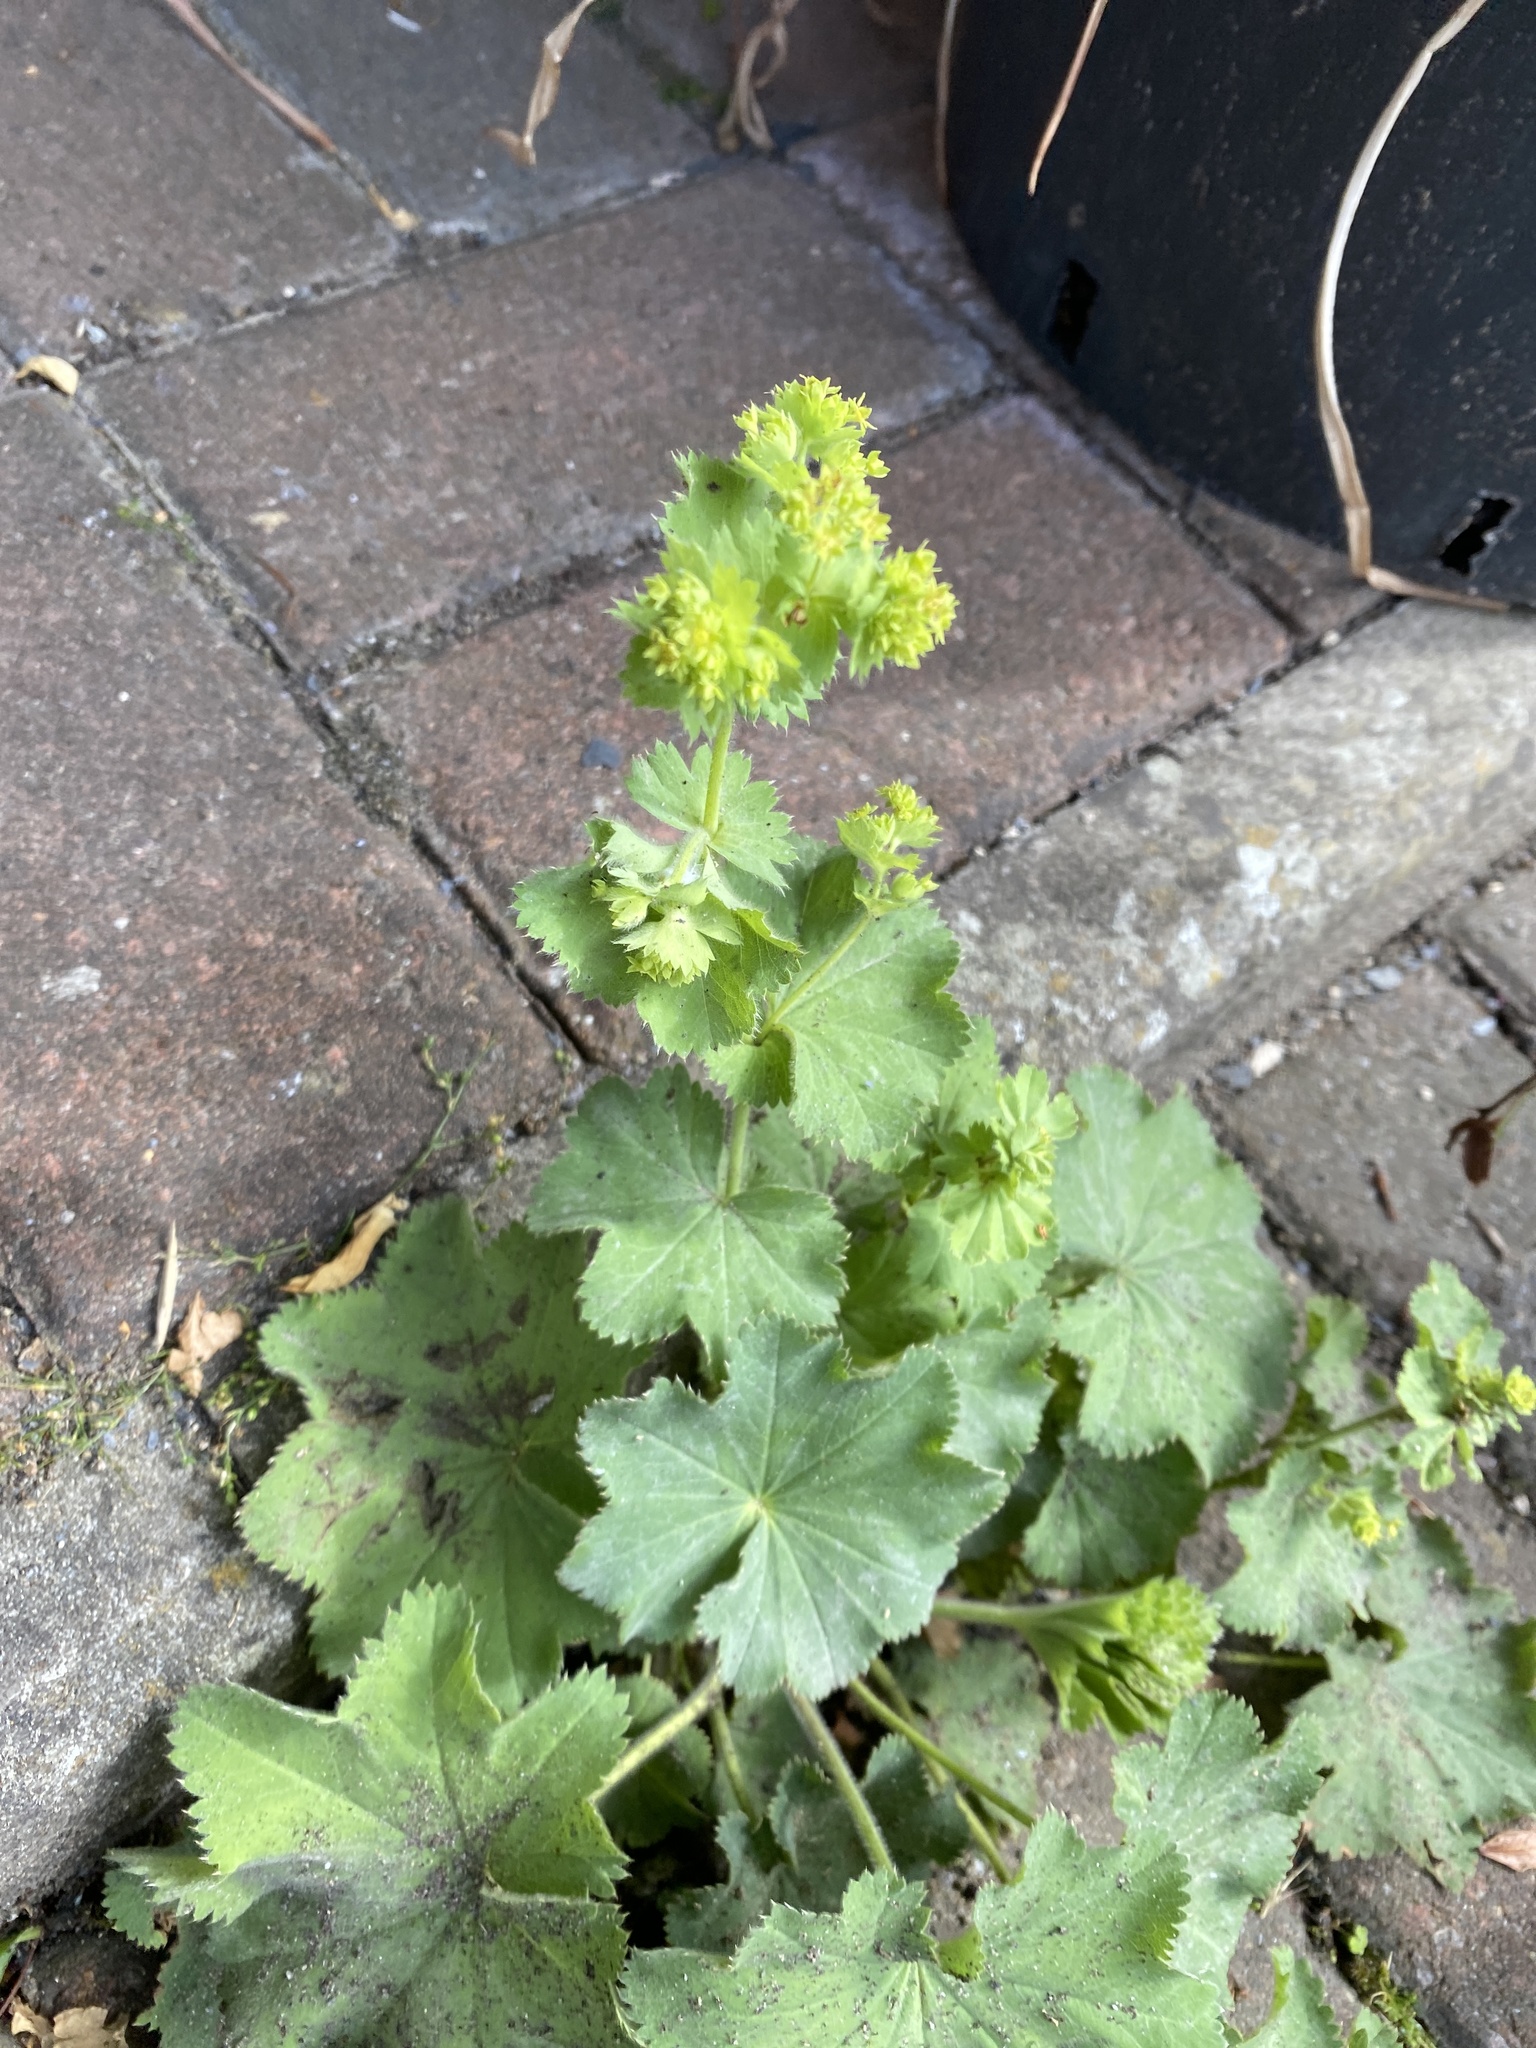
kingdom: Plantae
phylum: Tracheophyta
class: Magnoliopsida
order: Rosales
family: Rosaceae
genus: Alchemilla
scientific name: Alchemilla mollis
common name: Lady's-mantle
